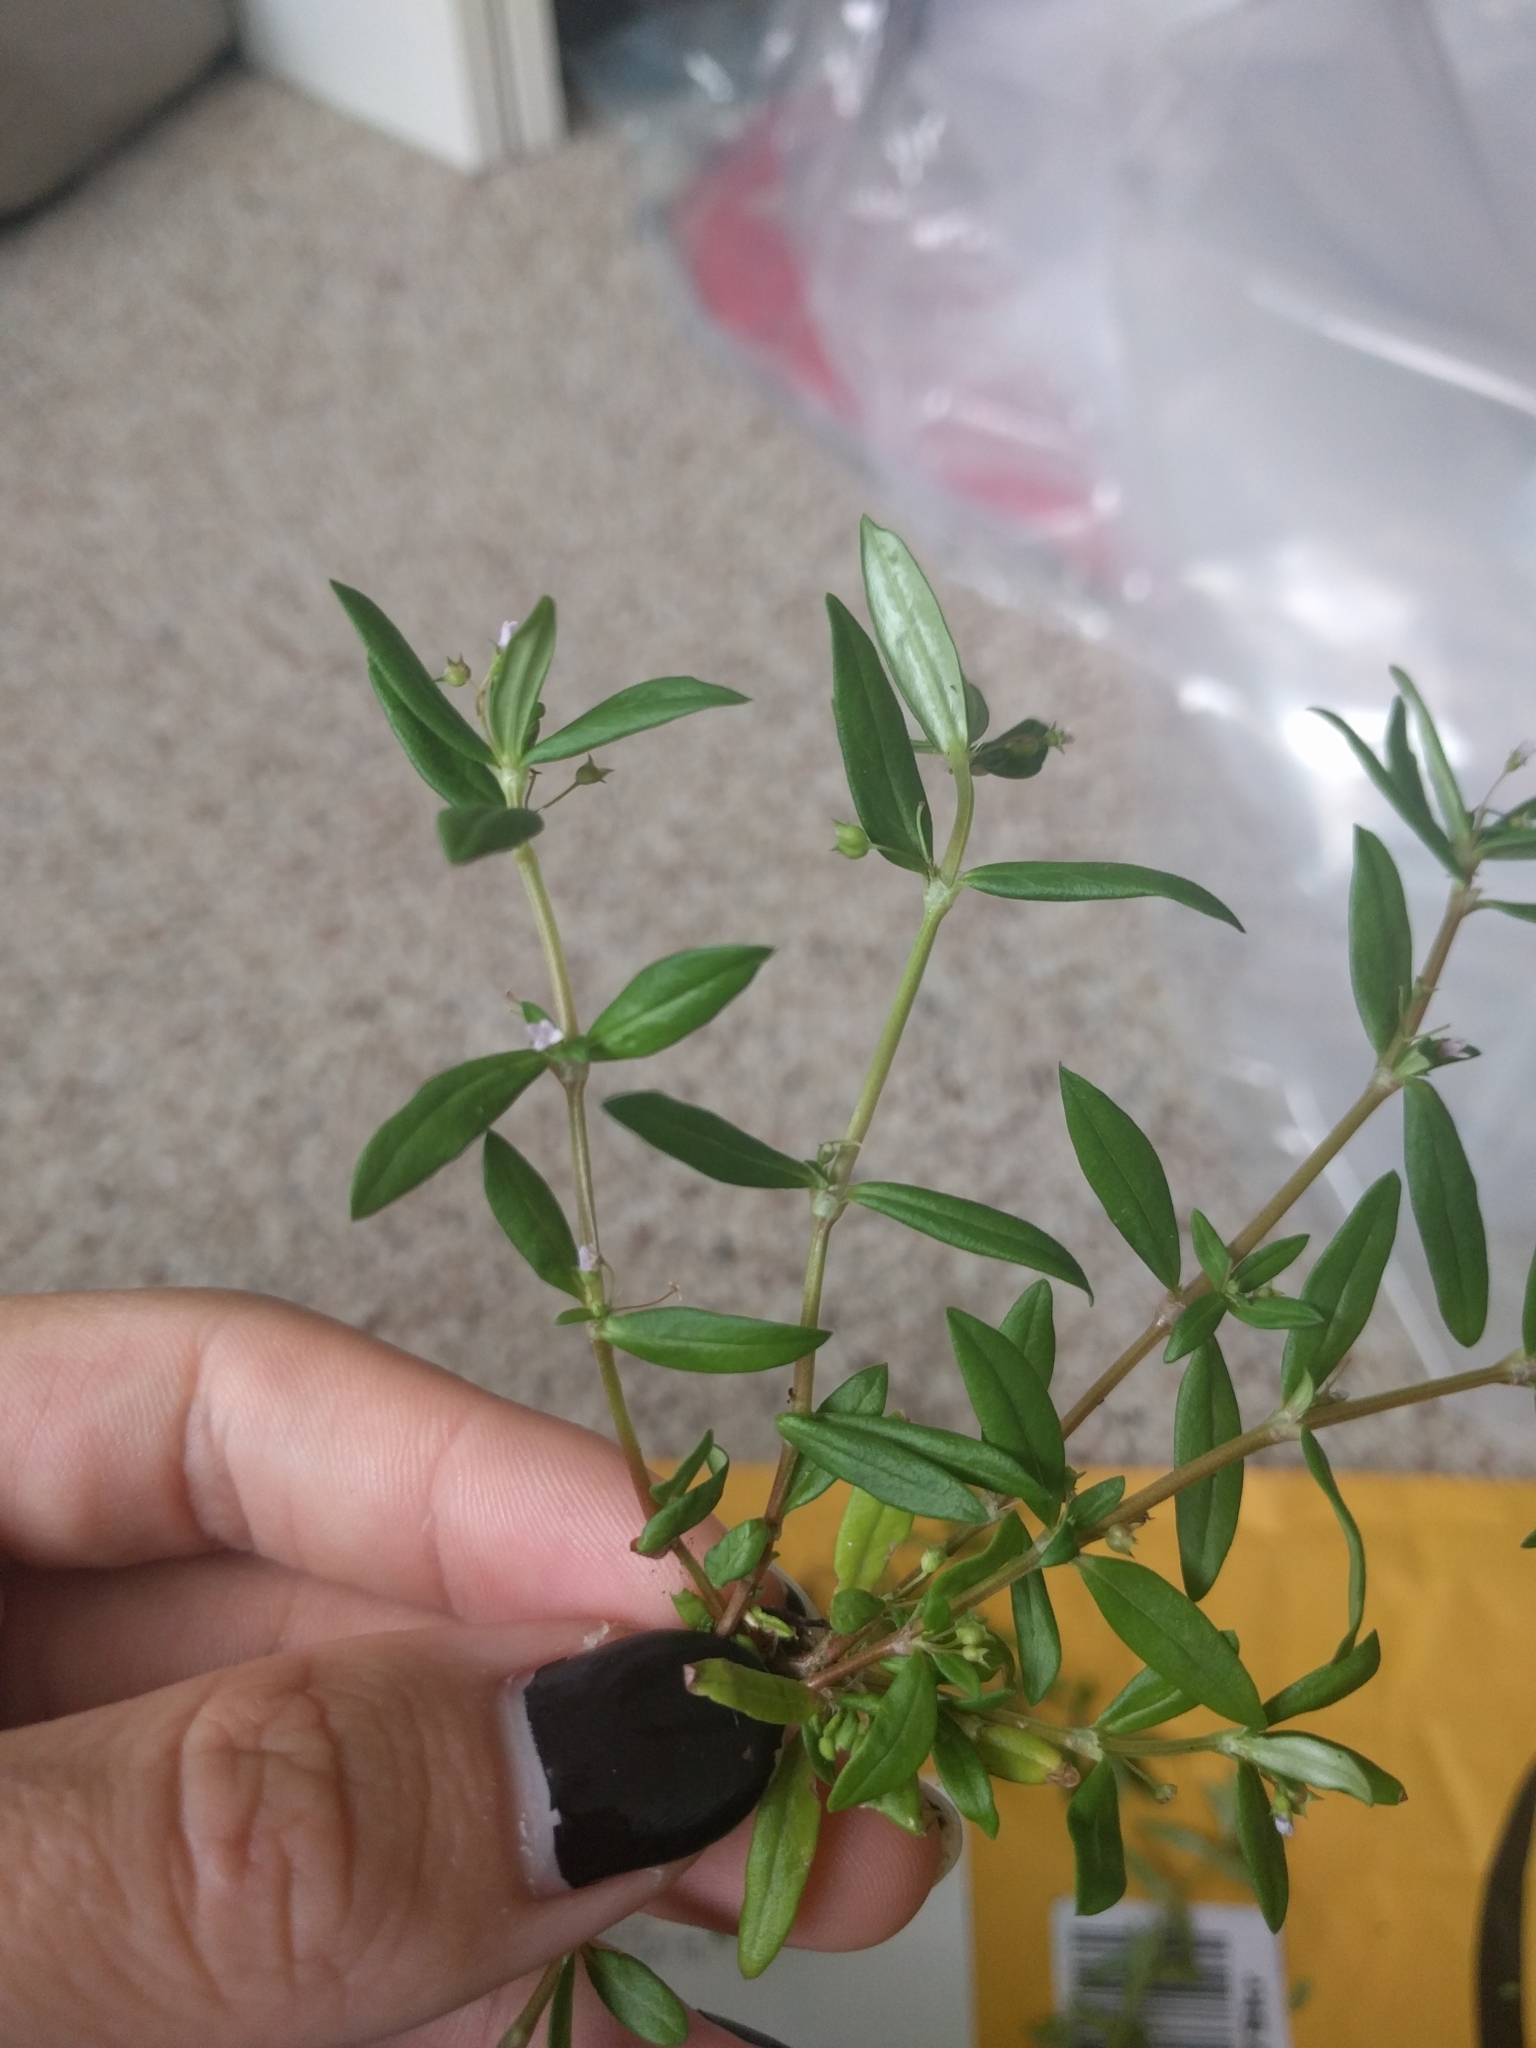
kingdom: Plantae
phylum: Tracheophyta
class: Magnoliopsida
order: Gentianales
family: Rubiaceae
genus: Oldenlandia
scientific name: Oldenlandia corymbosa
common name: Flat-top mille graines
